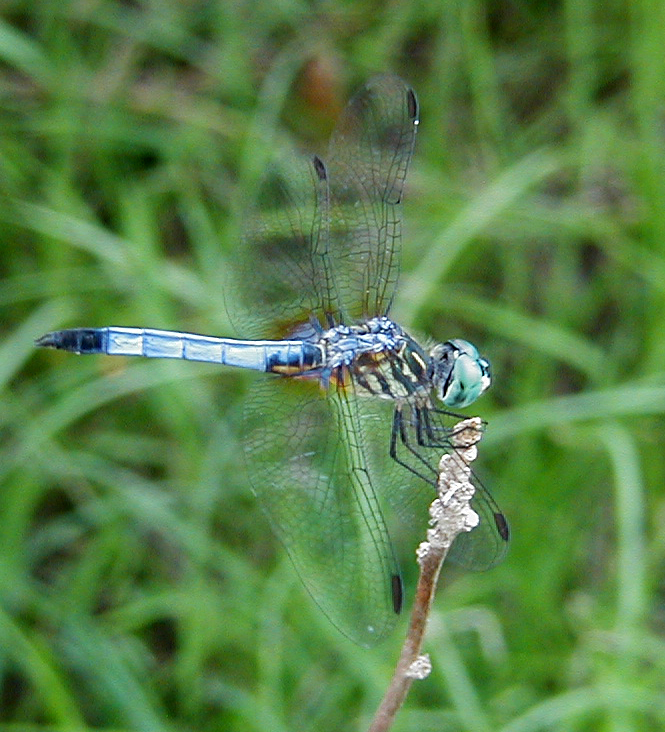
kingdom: Animalia
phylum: Arthropoda
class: Insecta
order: Odonata
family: Libellulidae
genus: Pachydiplax
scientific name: Pachydiplax longipennis
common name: Blue dasher
